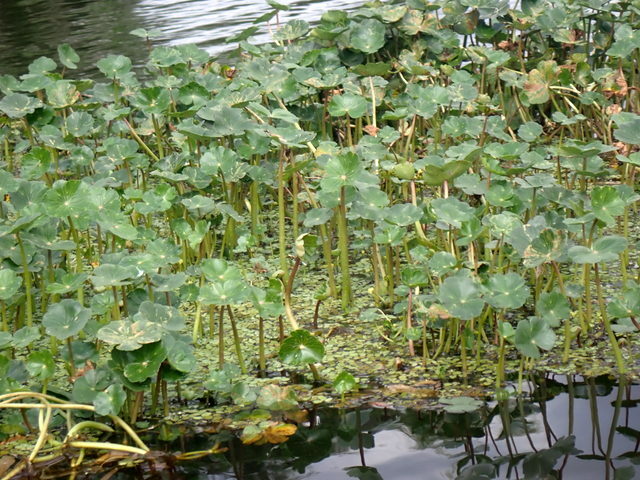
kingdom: Plantae
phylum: Tracheophyta
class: Magnoliopsida
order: Apiales
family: Araliaceae
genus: Hydrocotyle
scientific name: Hydrocotyle ranunculoides
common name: Floating pennywort
